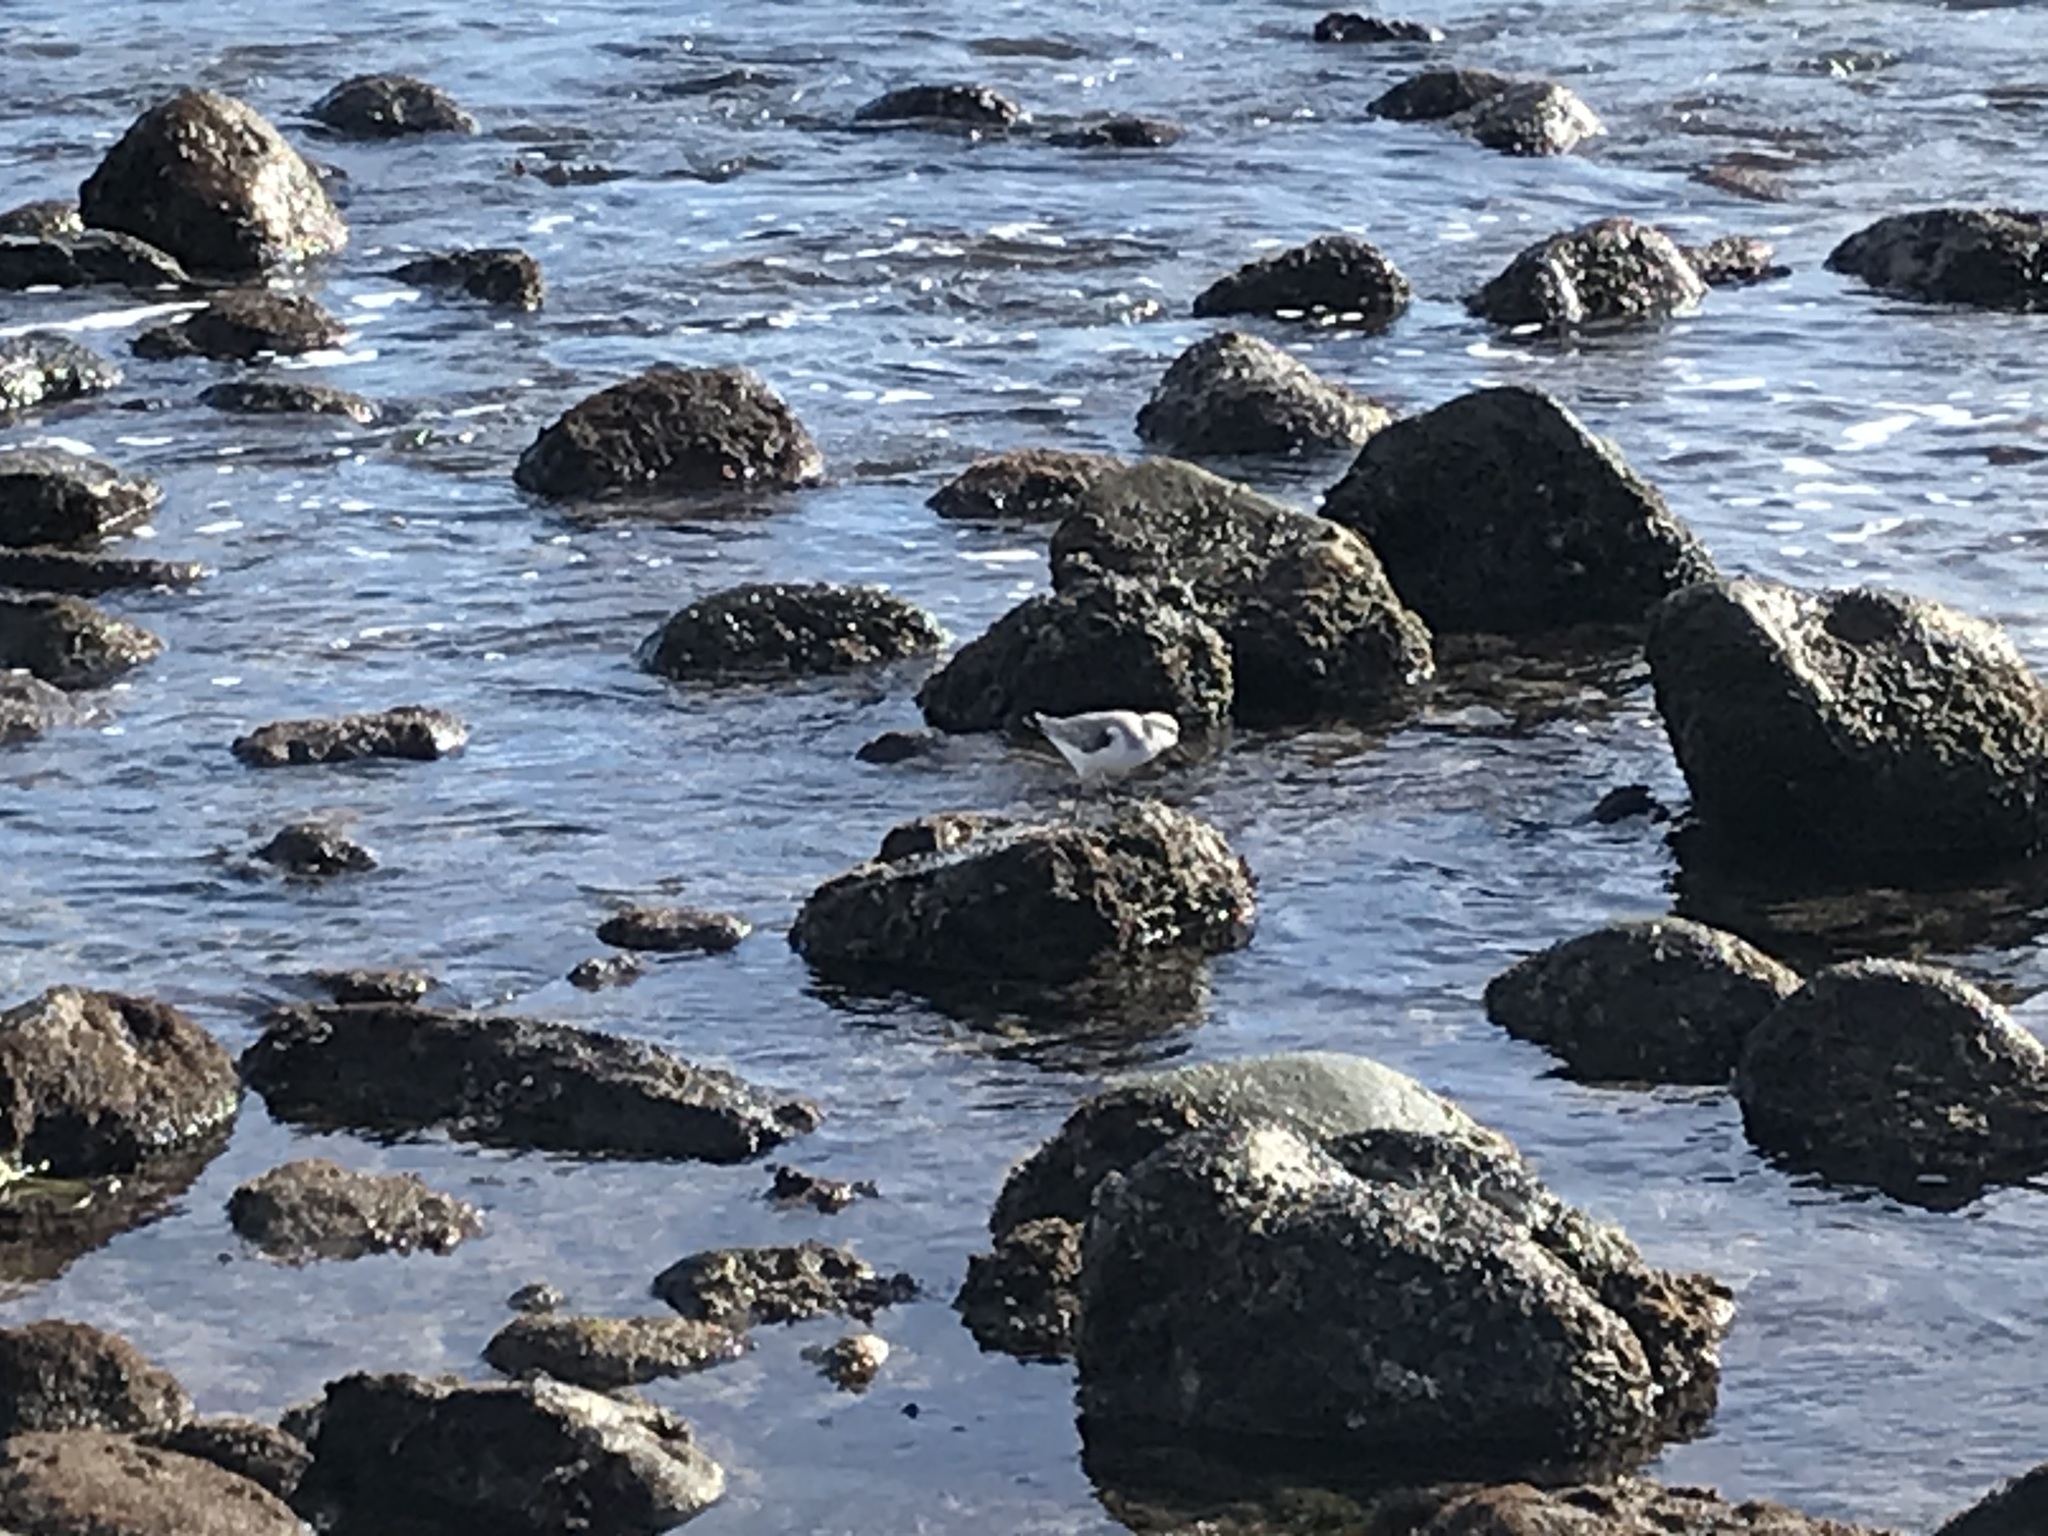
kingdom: Animalia
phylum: Chordata
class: Aves
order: Charadriiformes
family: Scolopacidae
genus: Calidris
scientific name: Calidris alba
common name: Sanderling
